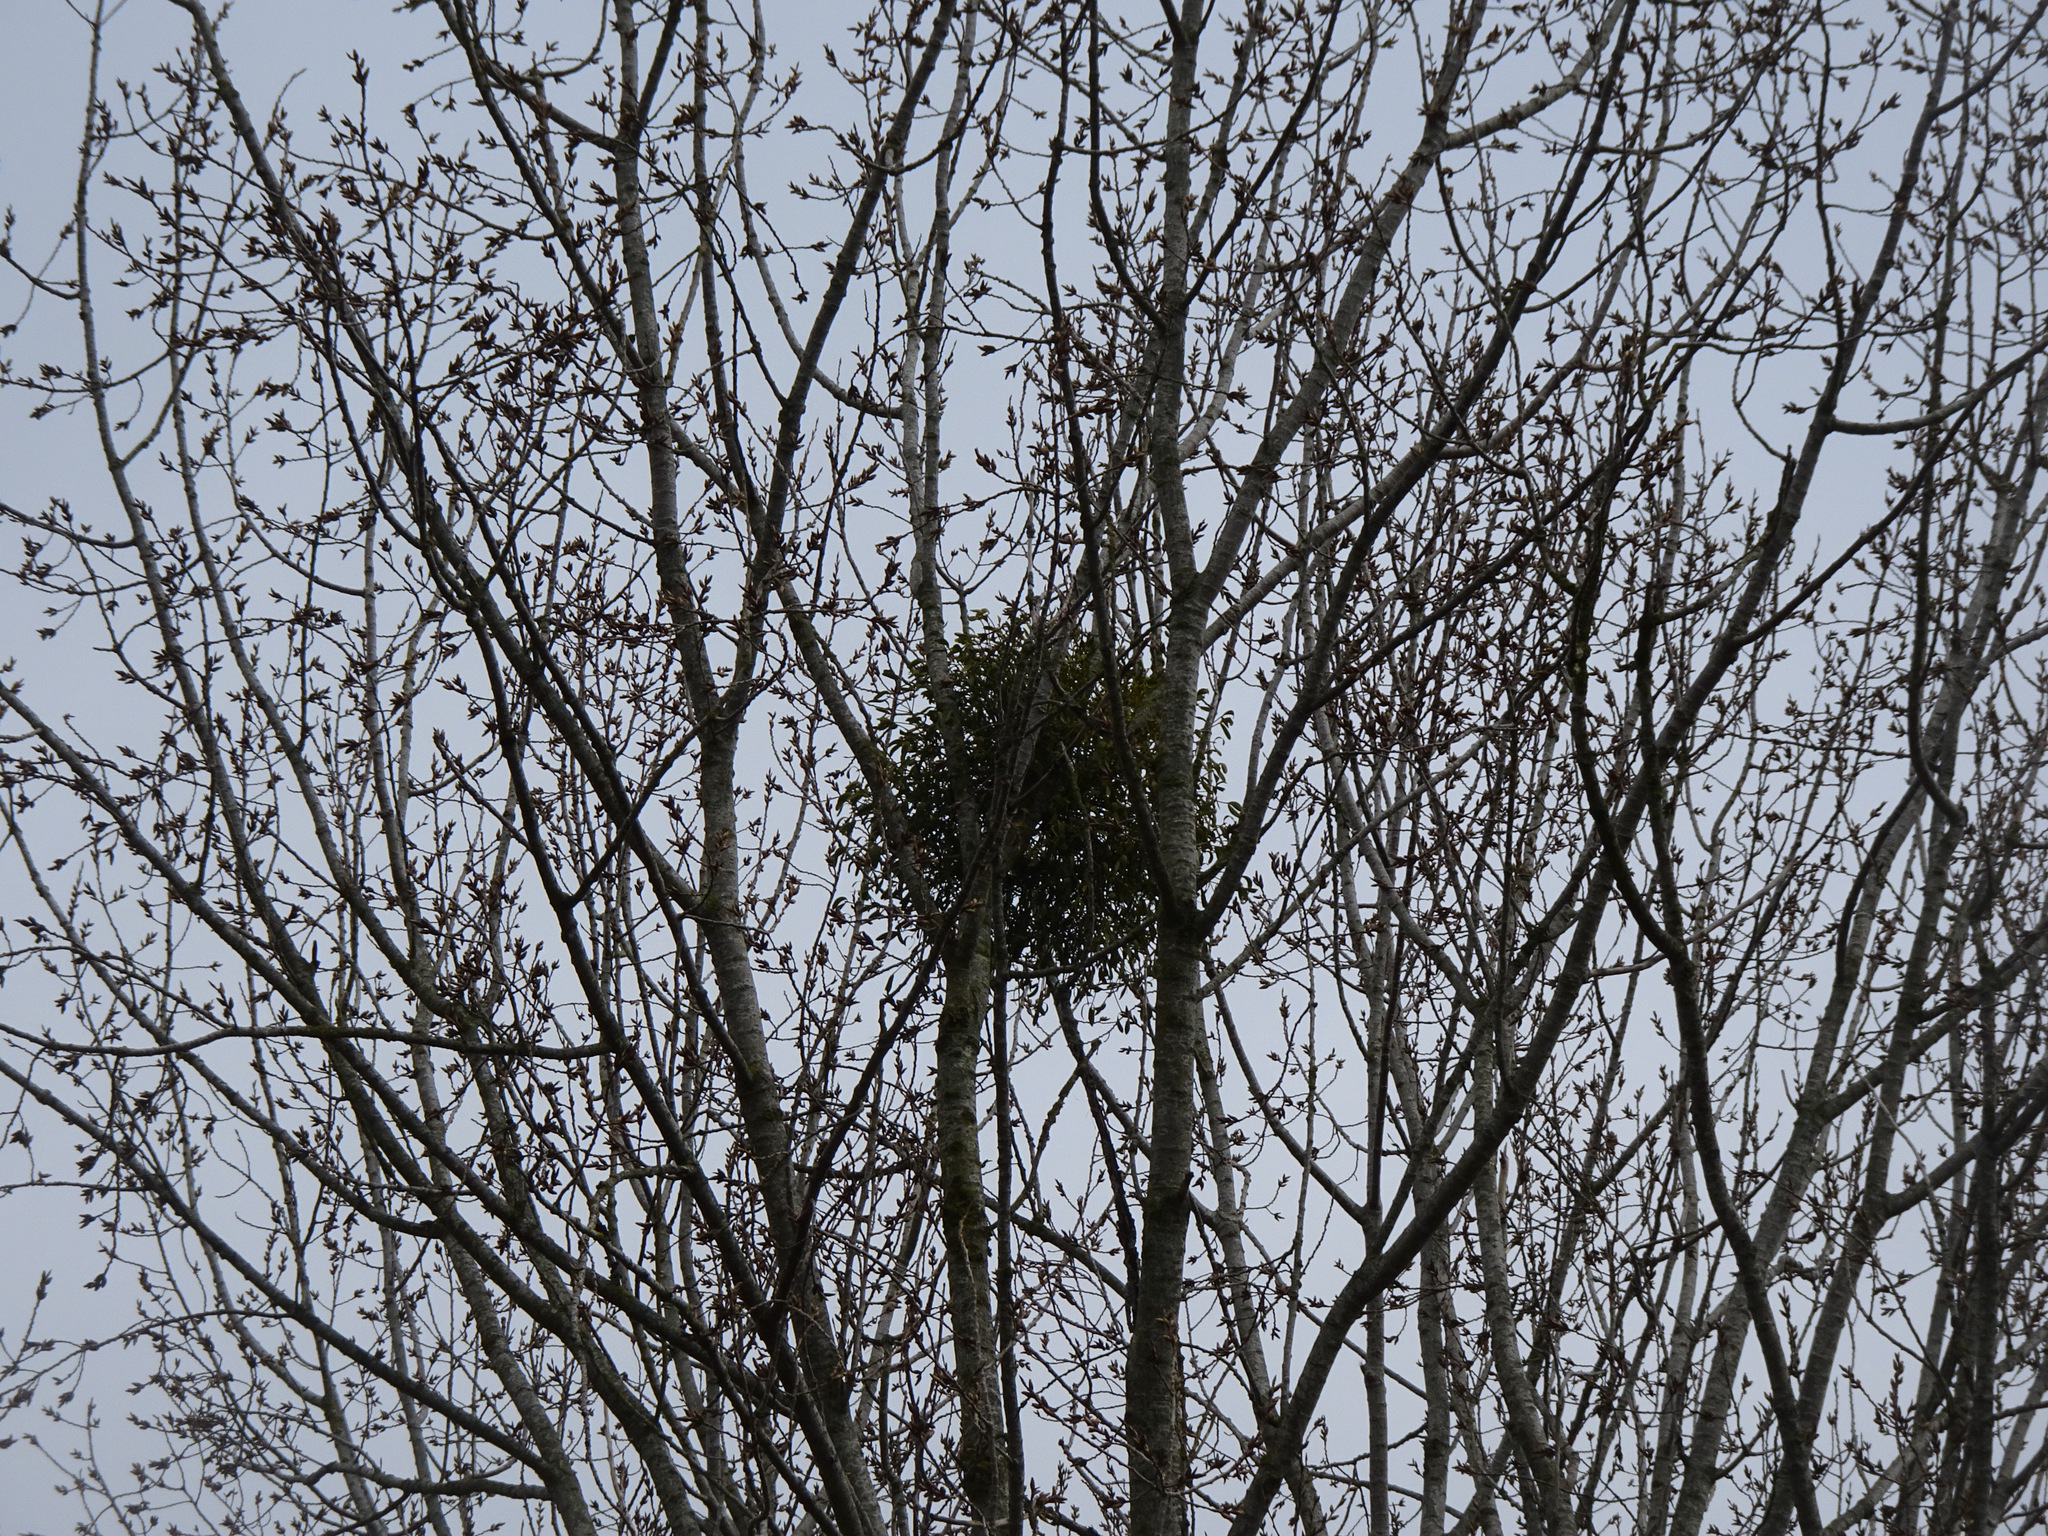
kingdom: Plantae
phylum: Tracheophyta
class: Magnoliopsida
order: Santalales
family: Viscaceae
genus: Viscum
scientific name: Viscum album
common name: Mistletoe
